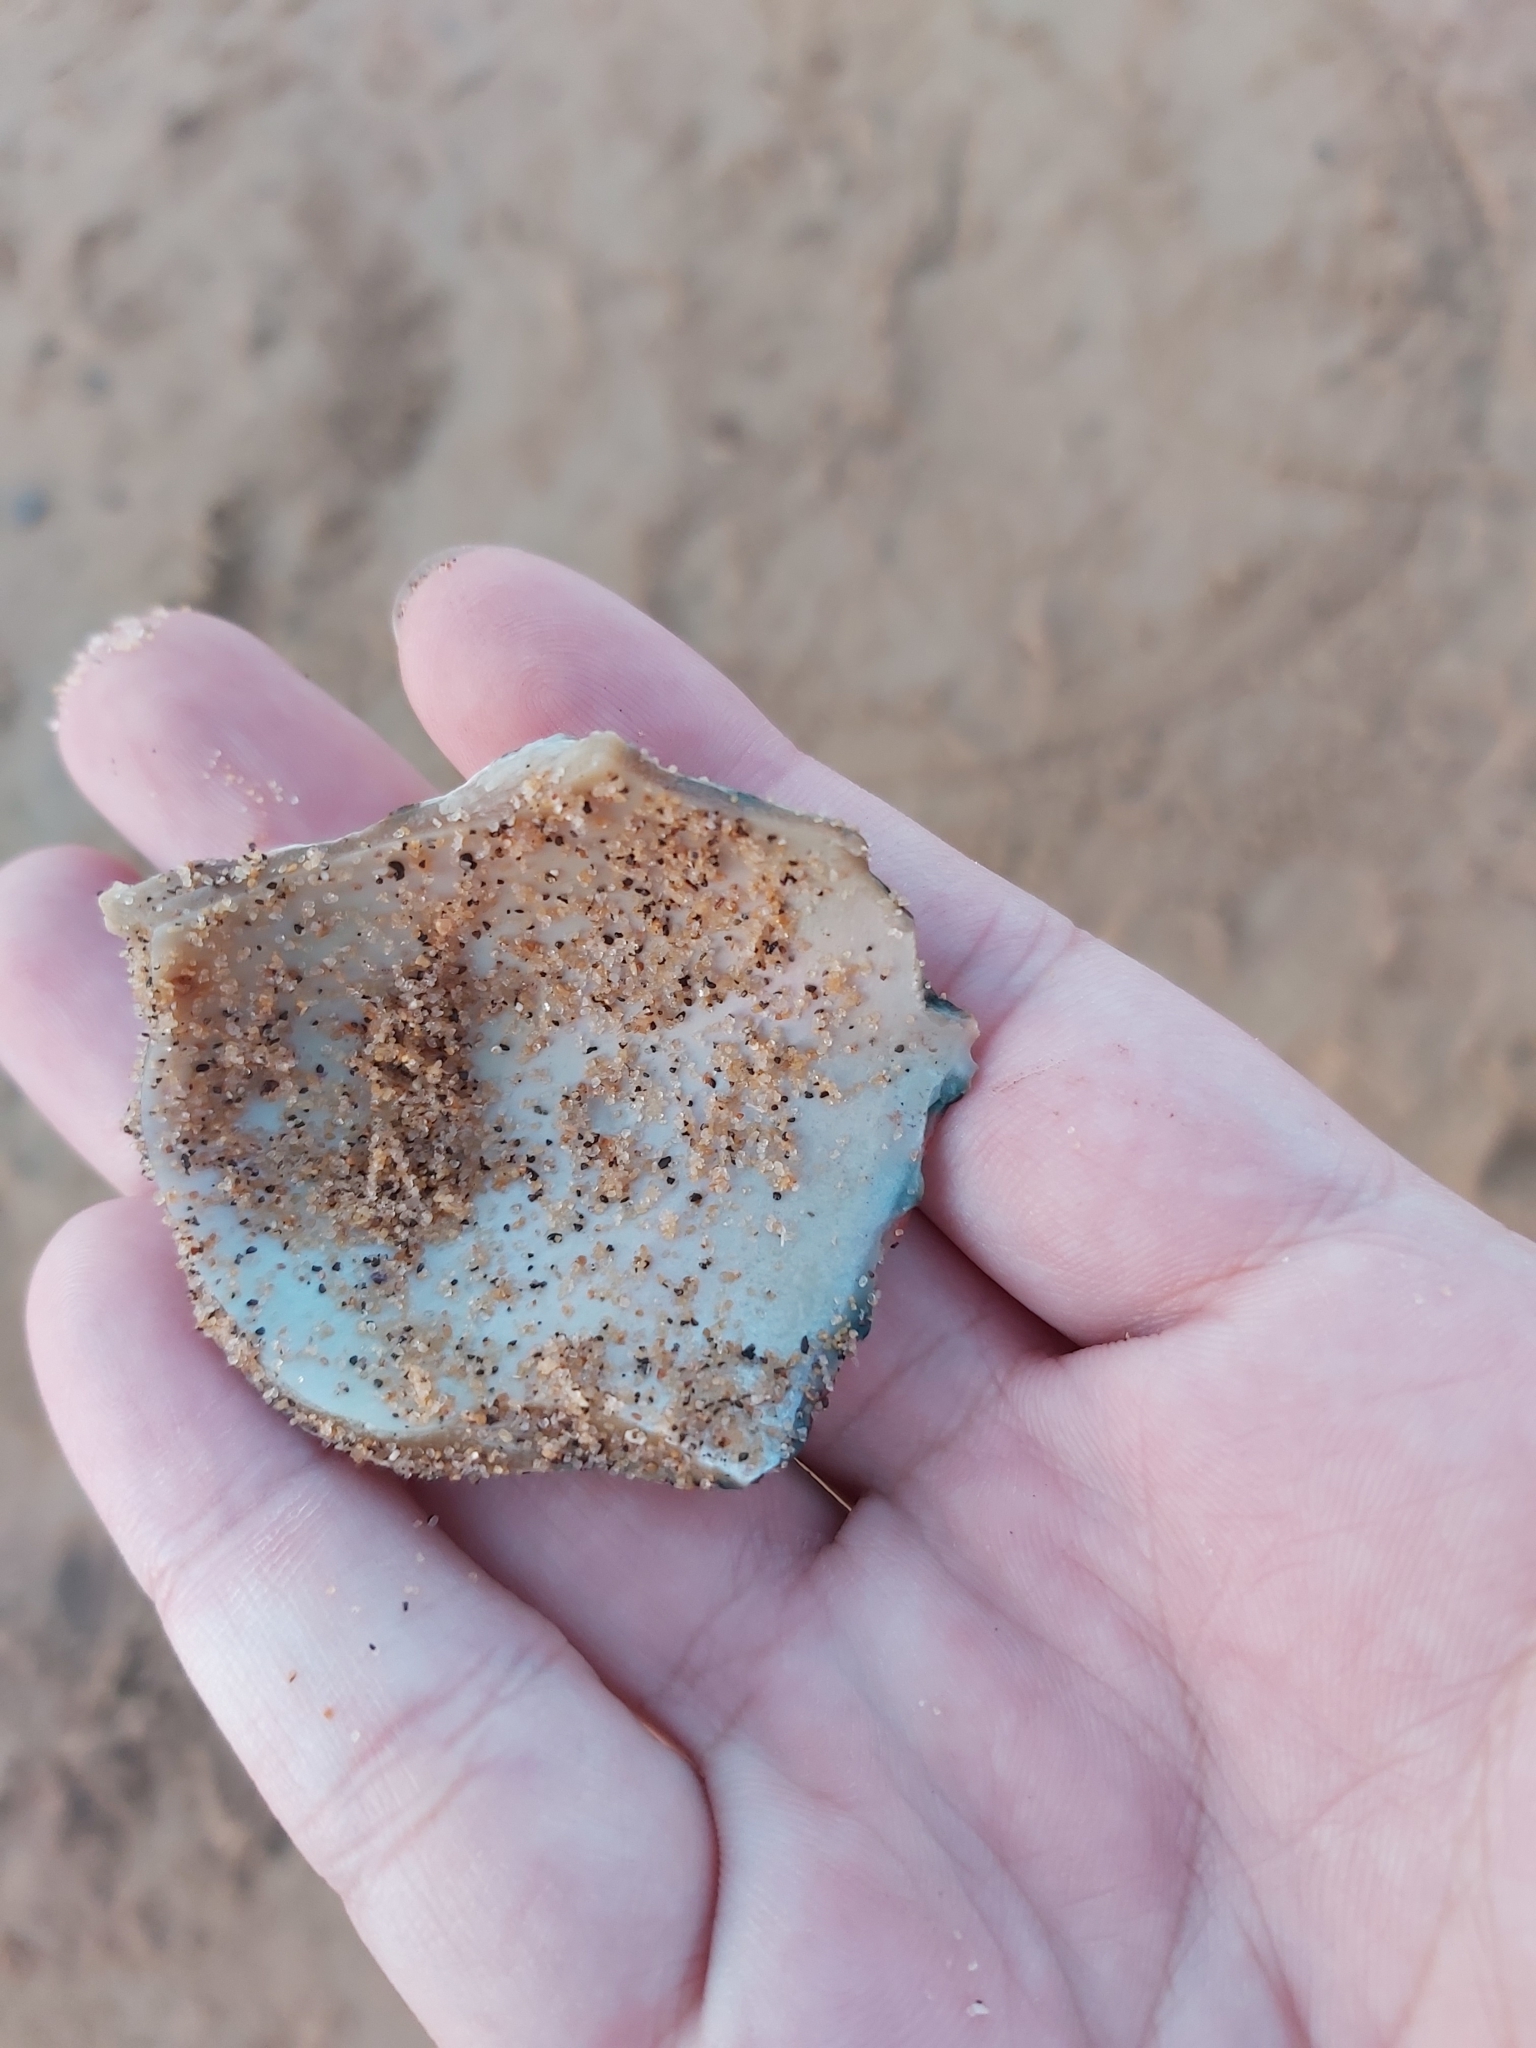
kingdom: Animalia
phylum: Mollusca
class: Gastropoda
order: Trochida
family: Turbinidae
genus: Turbo
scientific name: Turbo militaris
